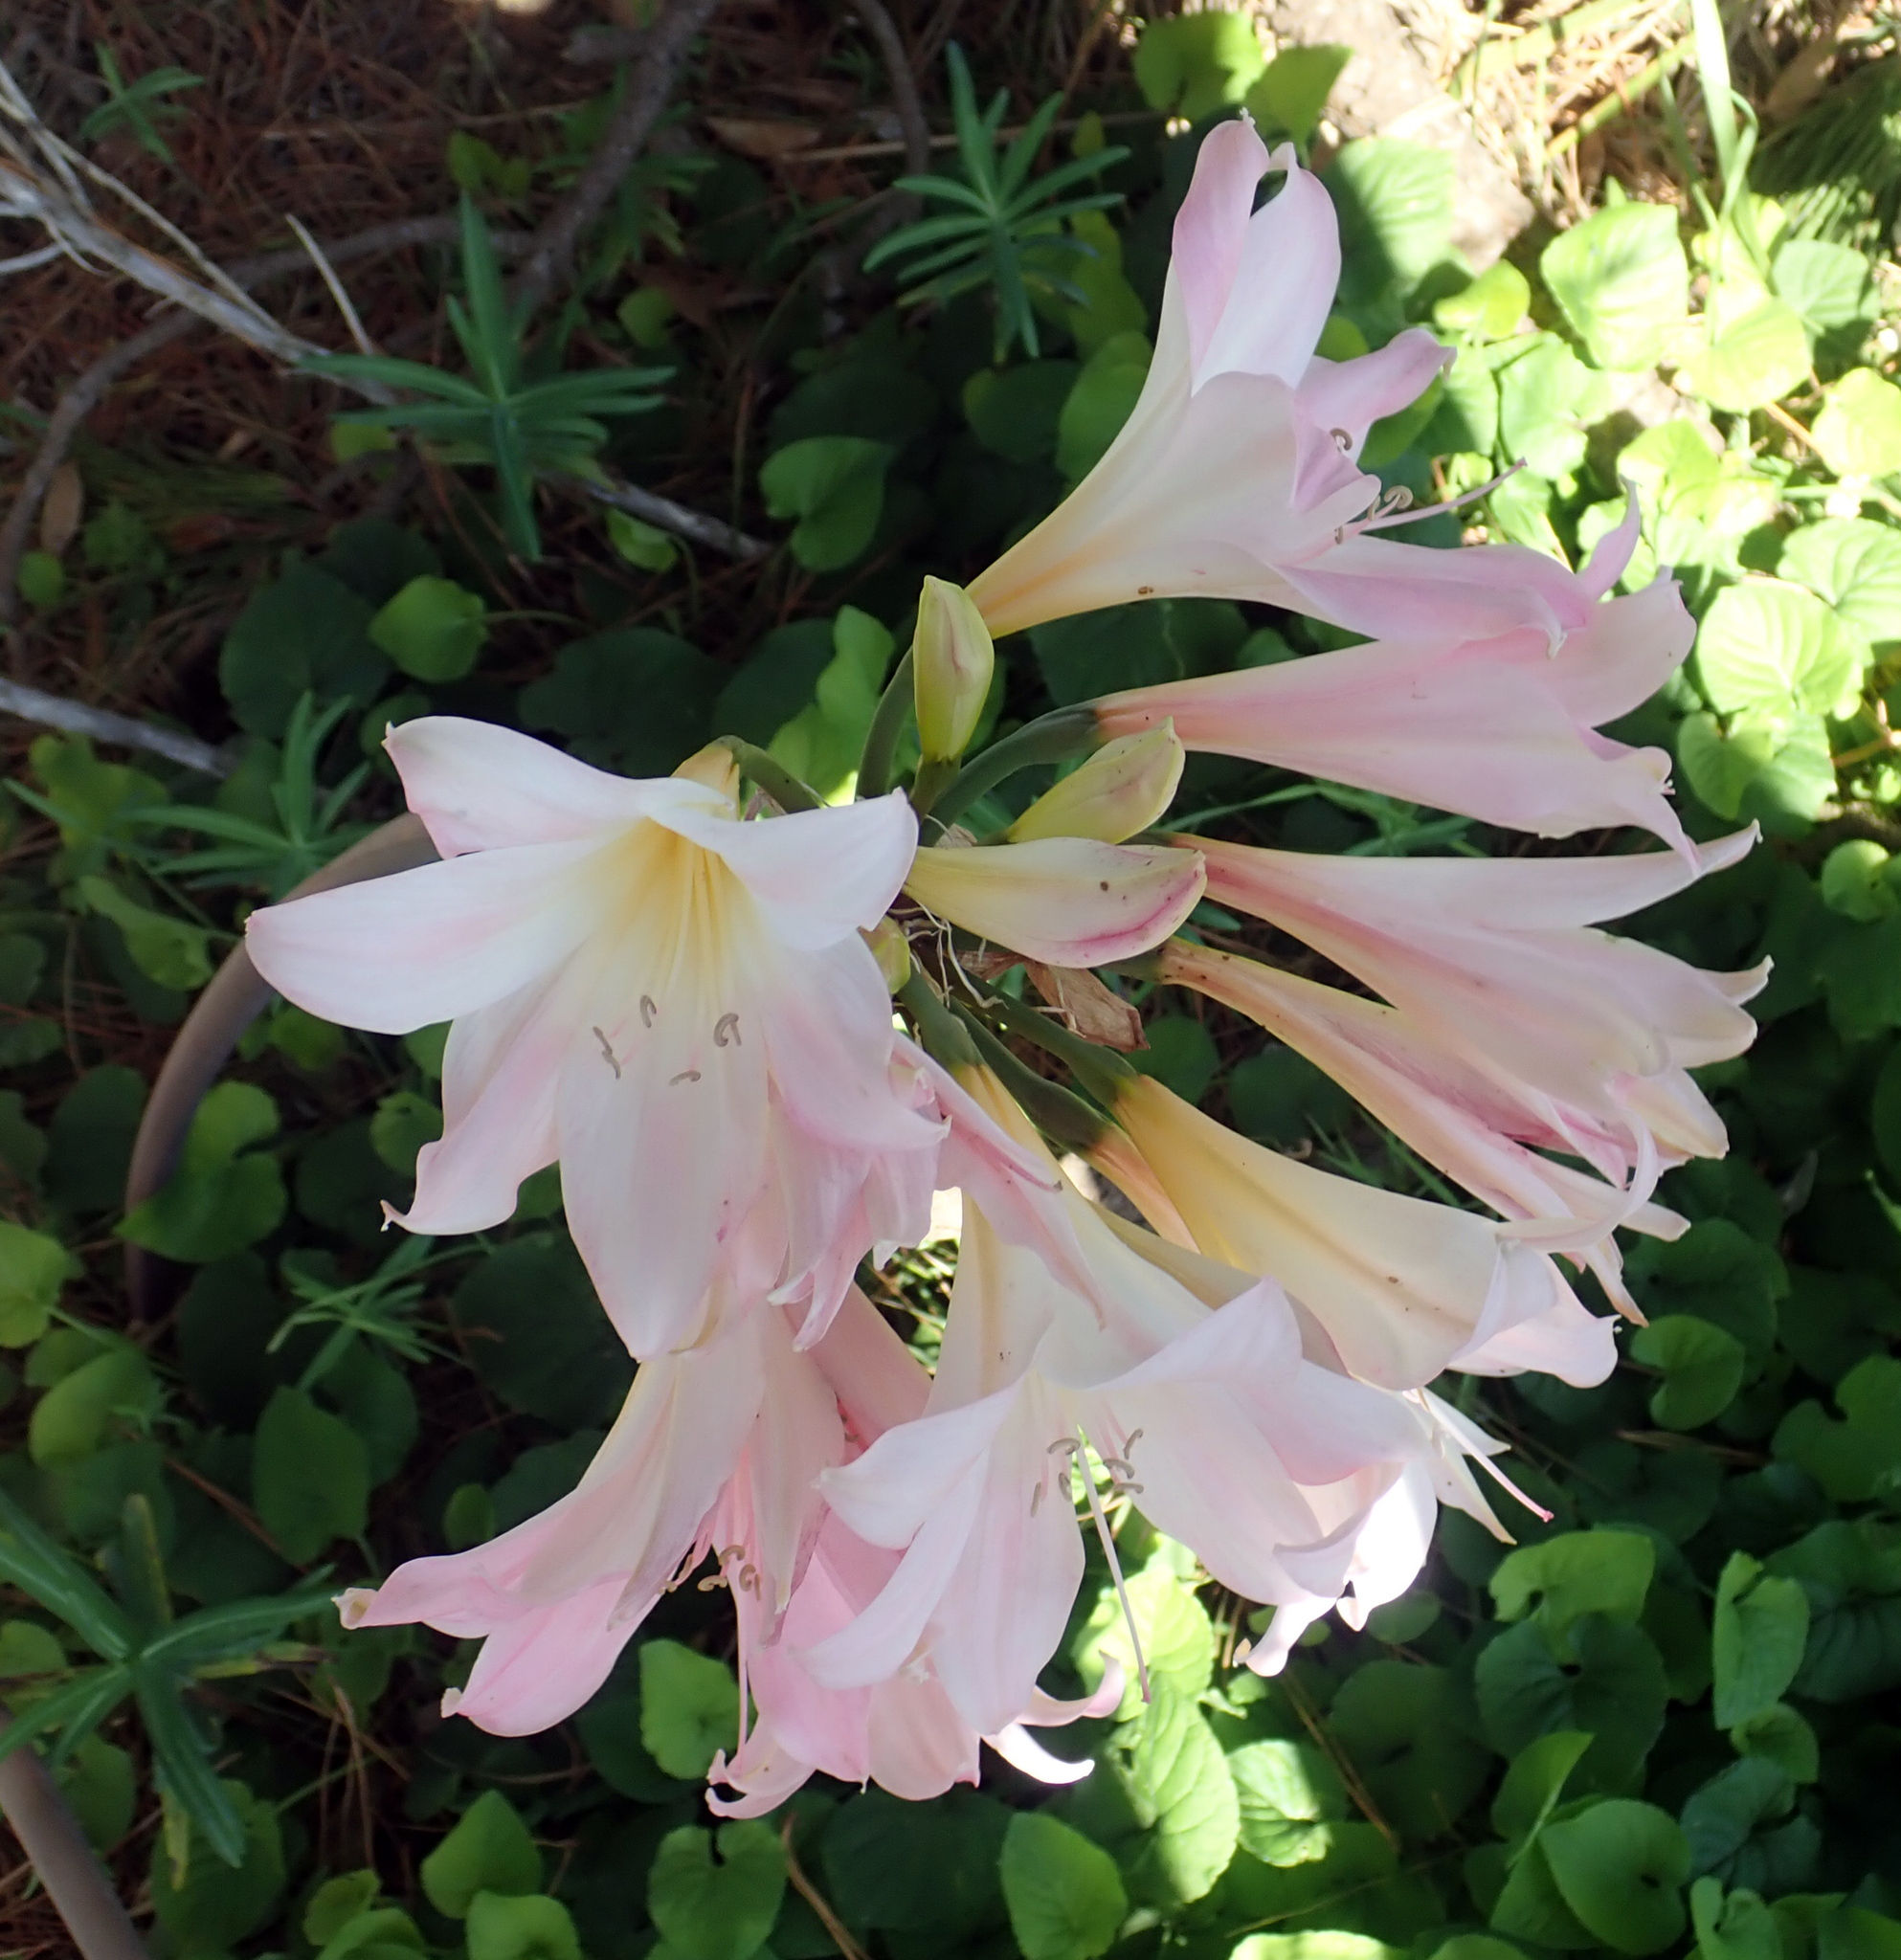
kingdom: Plantae
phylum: Tracheophyta
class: Liliopsida
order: Asparagales
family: Amaryllidaceae
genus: Amaryllis
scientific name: Amaryllis belladonna
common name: Jersey lily
